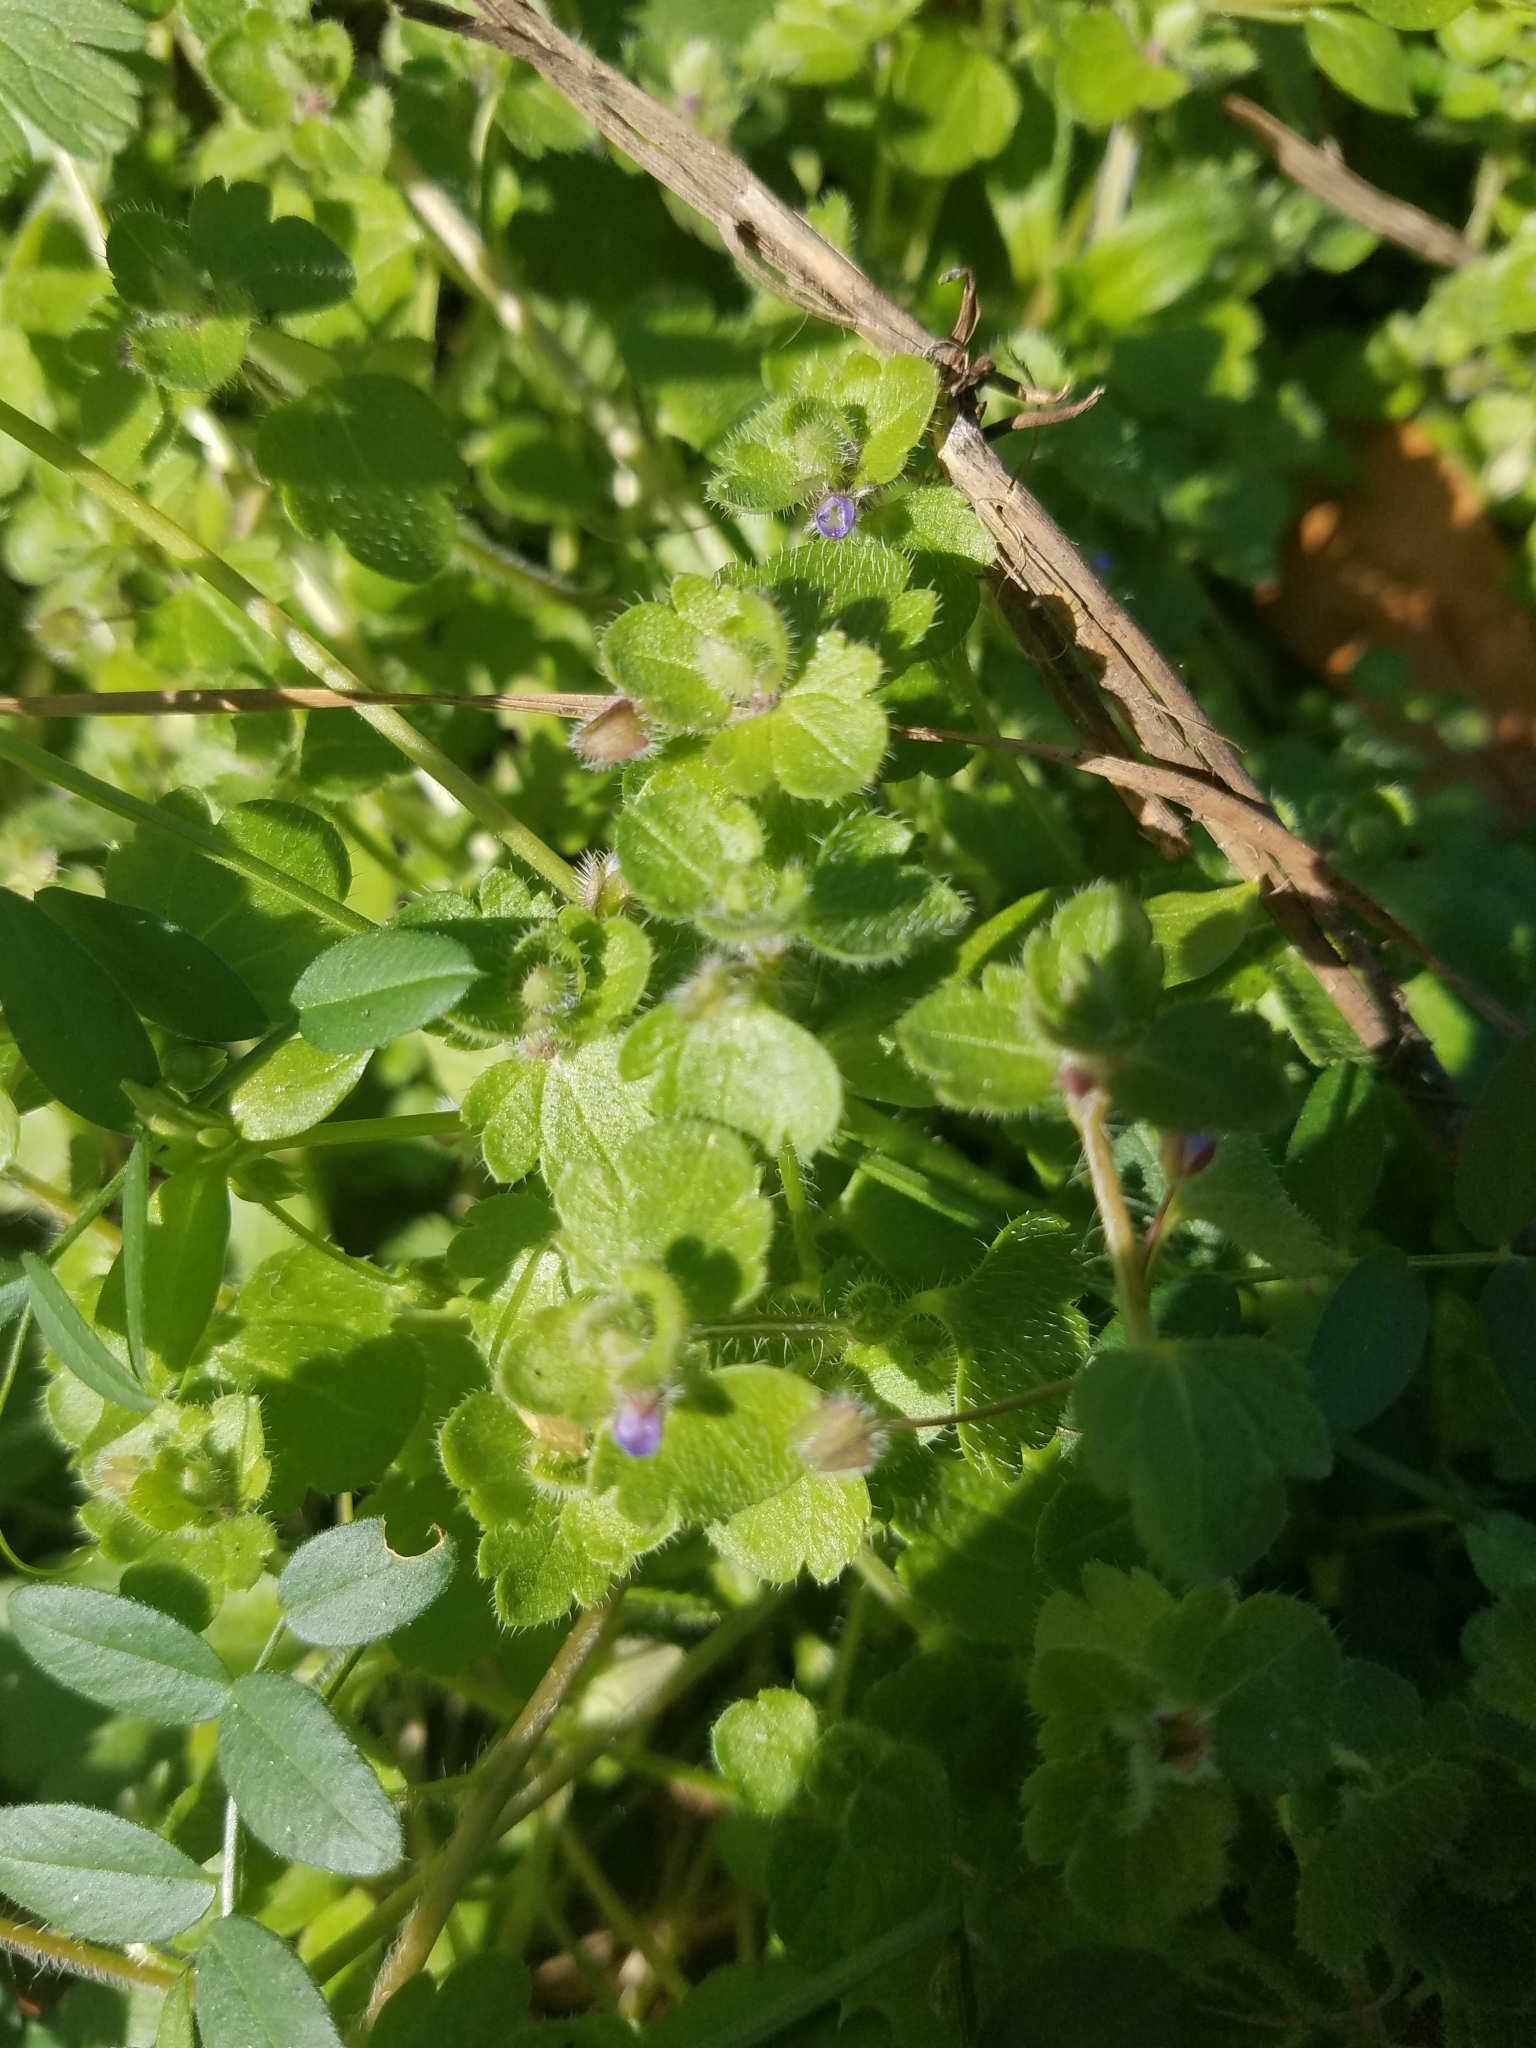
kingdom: Plantae
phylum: Tracheophyta
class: Magnoliopsida
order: Lamiales
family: Plantaginaceae
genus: Veronica
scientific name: Veronica hederifolia
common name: Ivy-leaved speedwell
